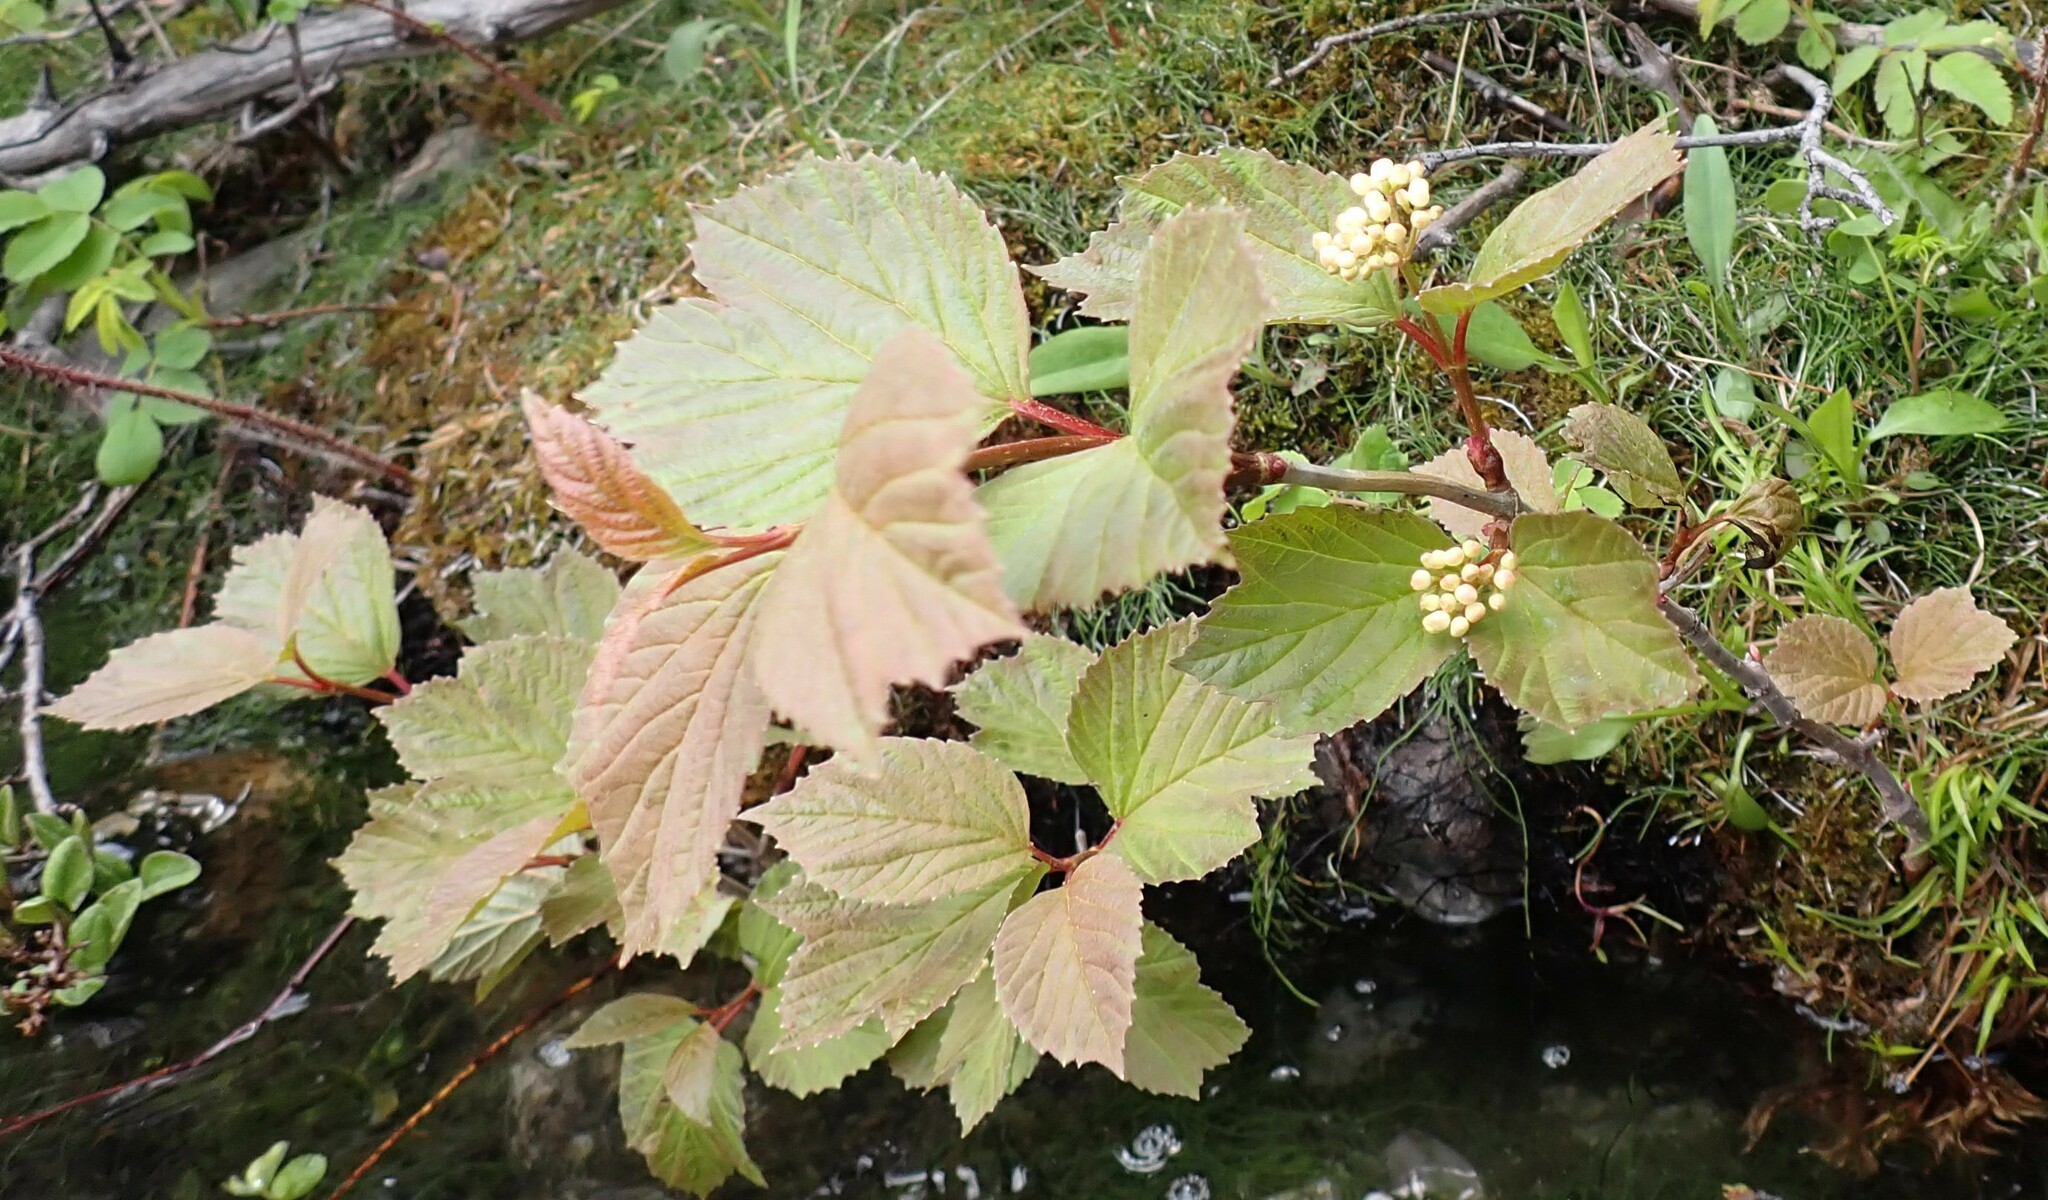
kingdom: Plantae
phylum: Tracheophyta
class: Magnoliopsida
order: Dipsacales
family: Viburnaceae
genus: Viburnum
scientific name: Viburnum edule
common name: Mooseberry
